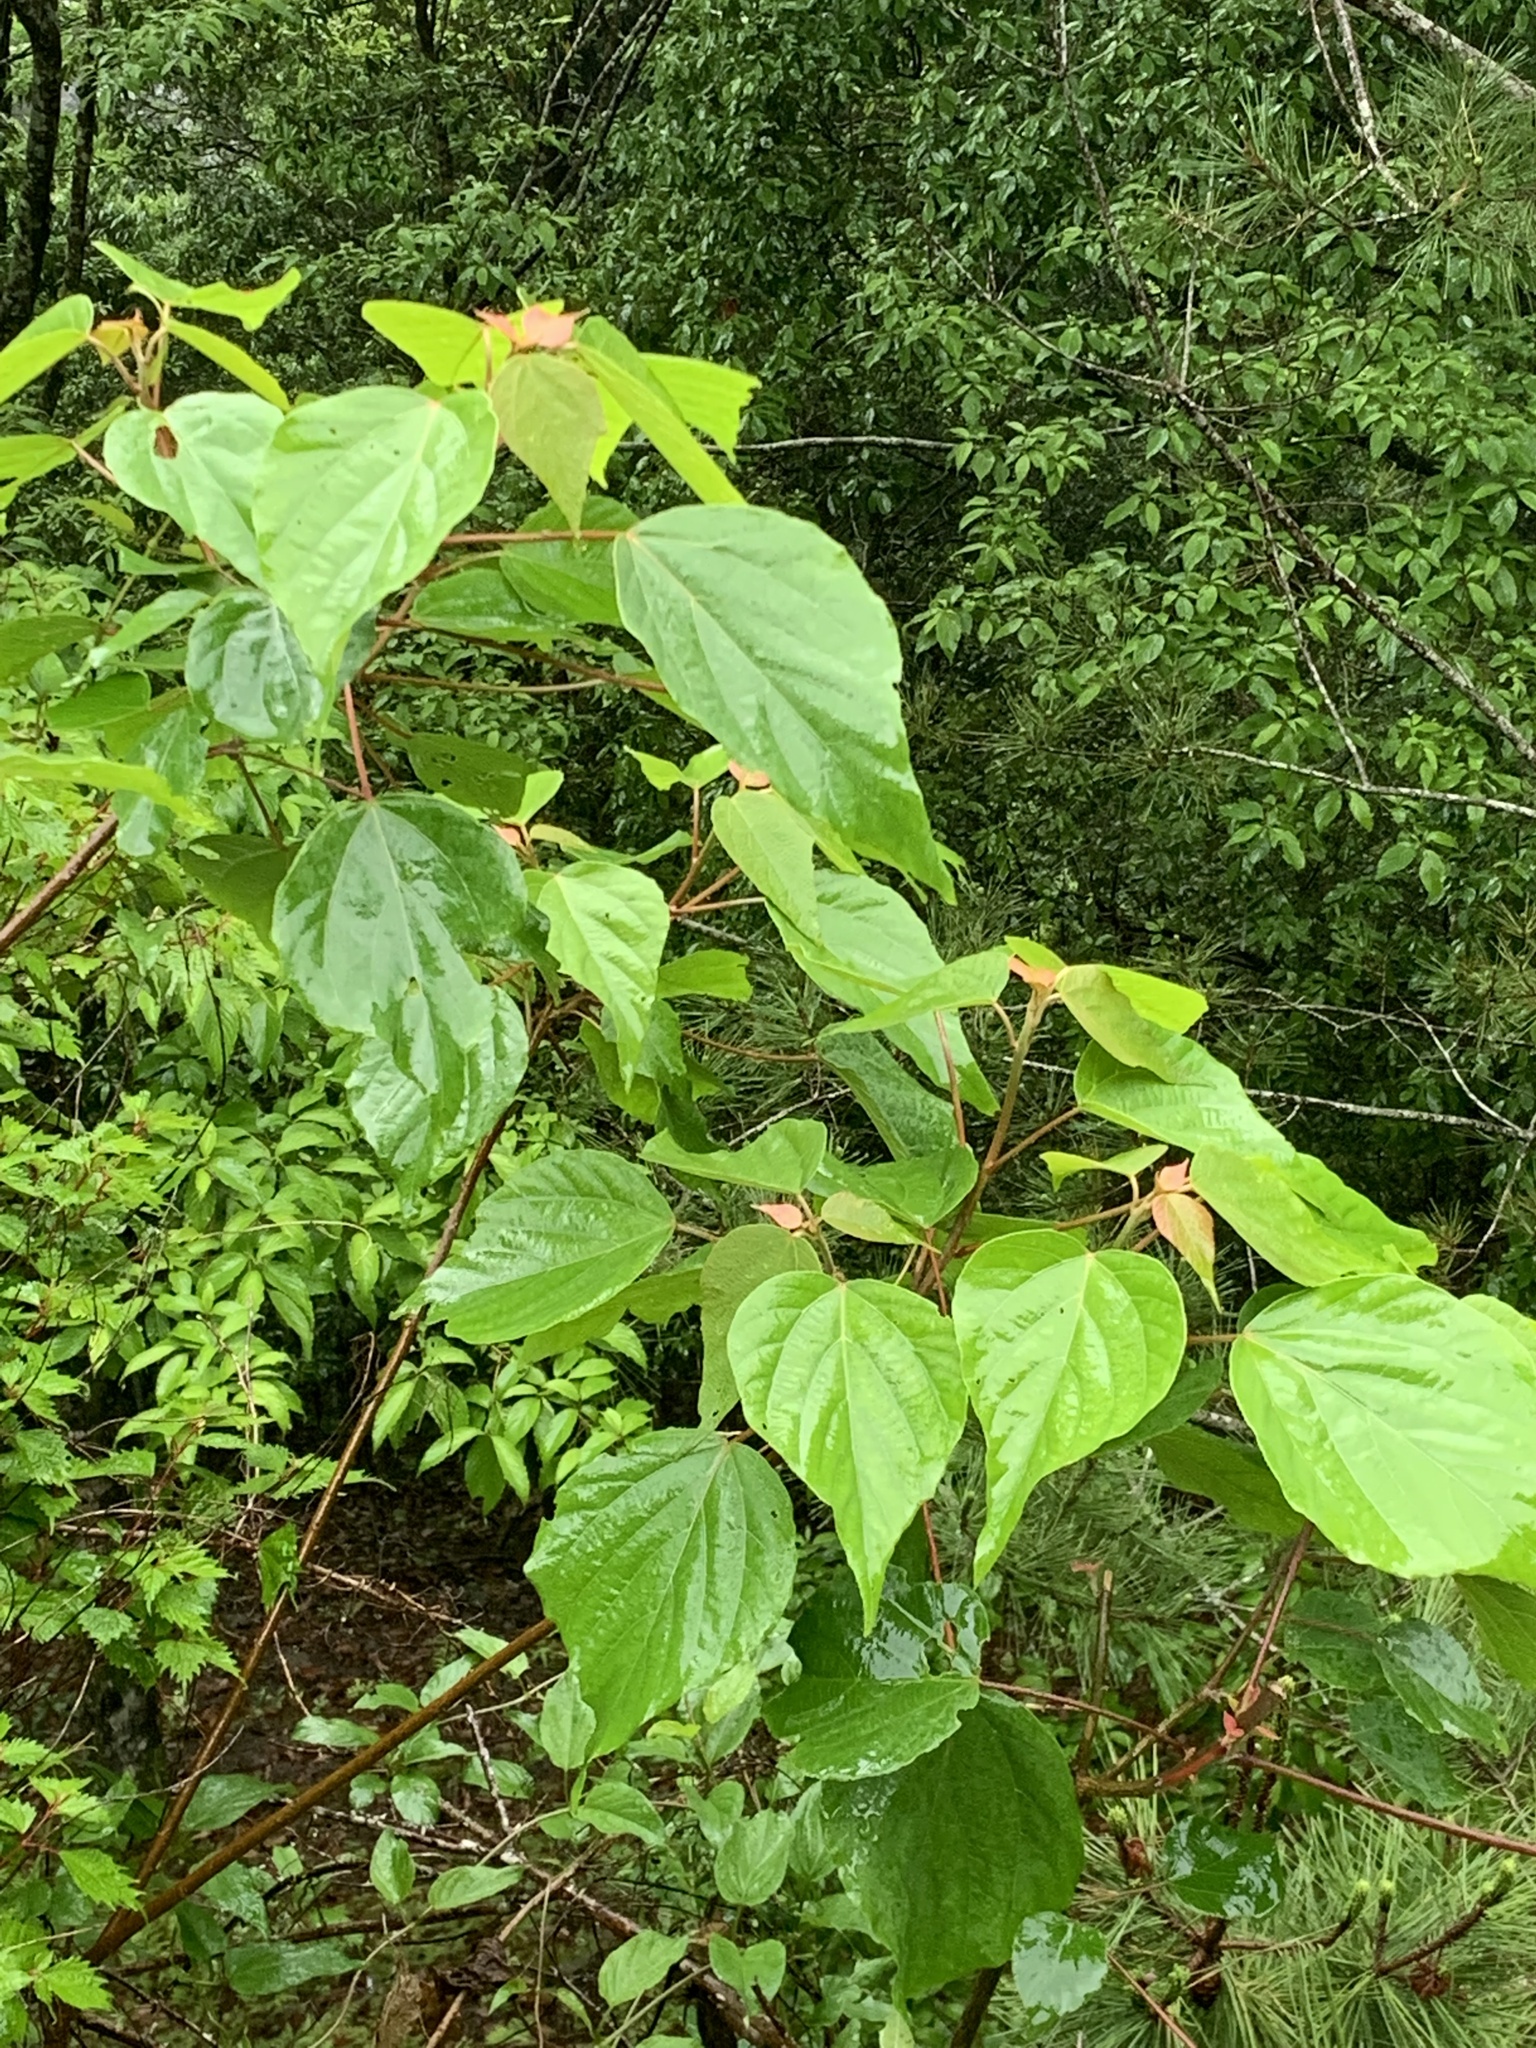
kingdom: Plantae
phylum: Tracheophyta
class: Magnoliopsida
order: Malpighiales
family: Euphorbiaceae
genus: Mallotus
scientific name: Mallotus japonicus
